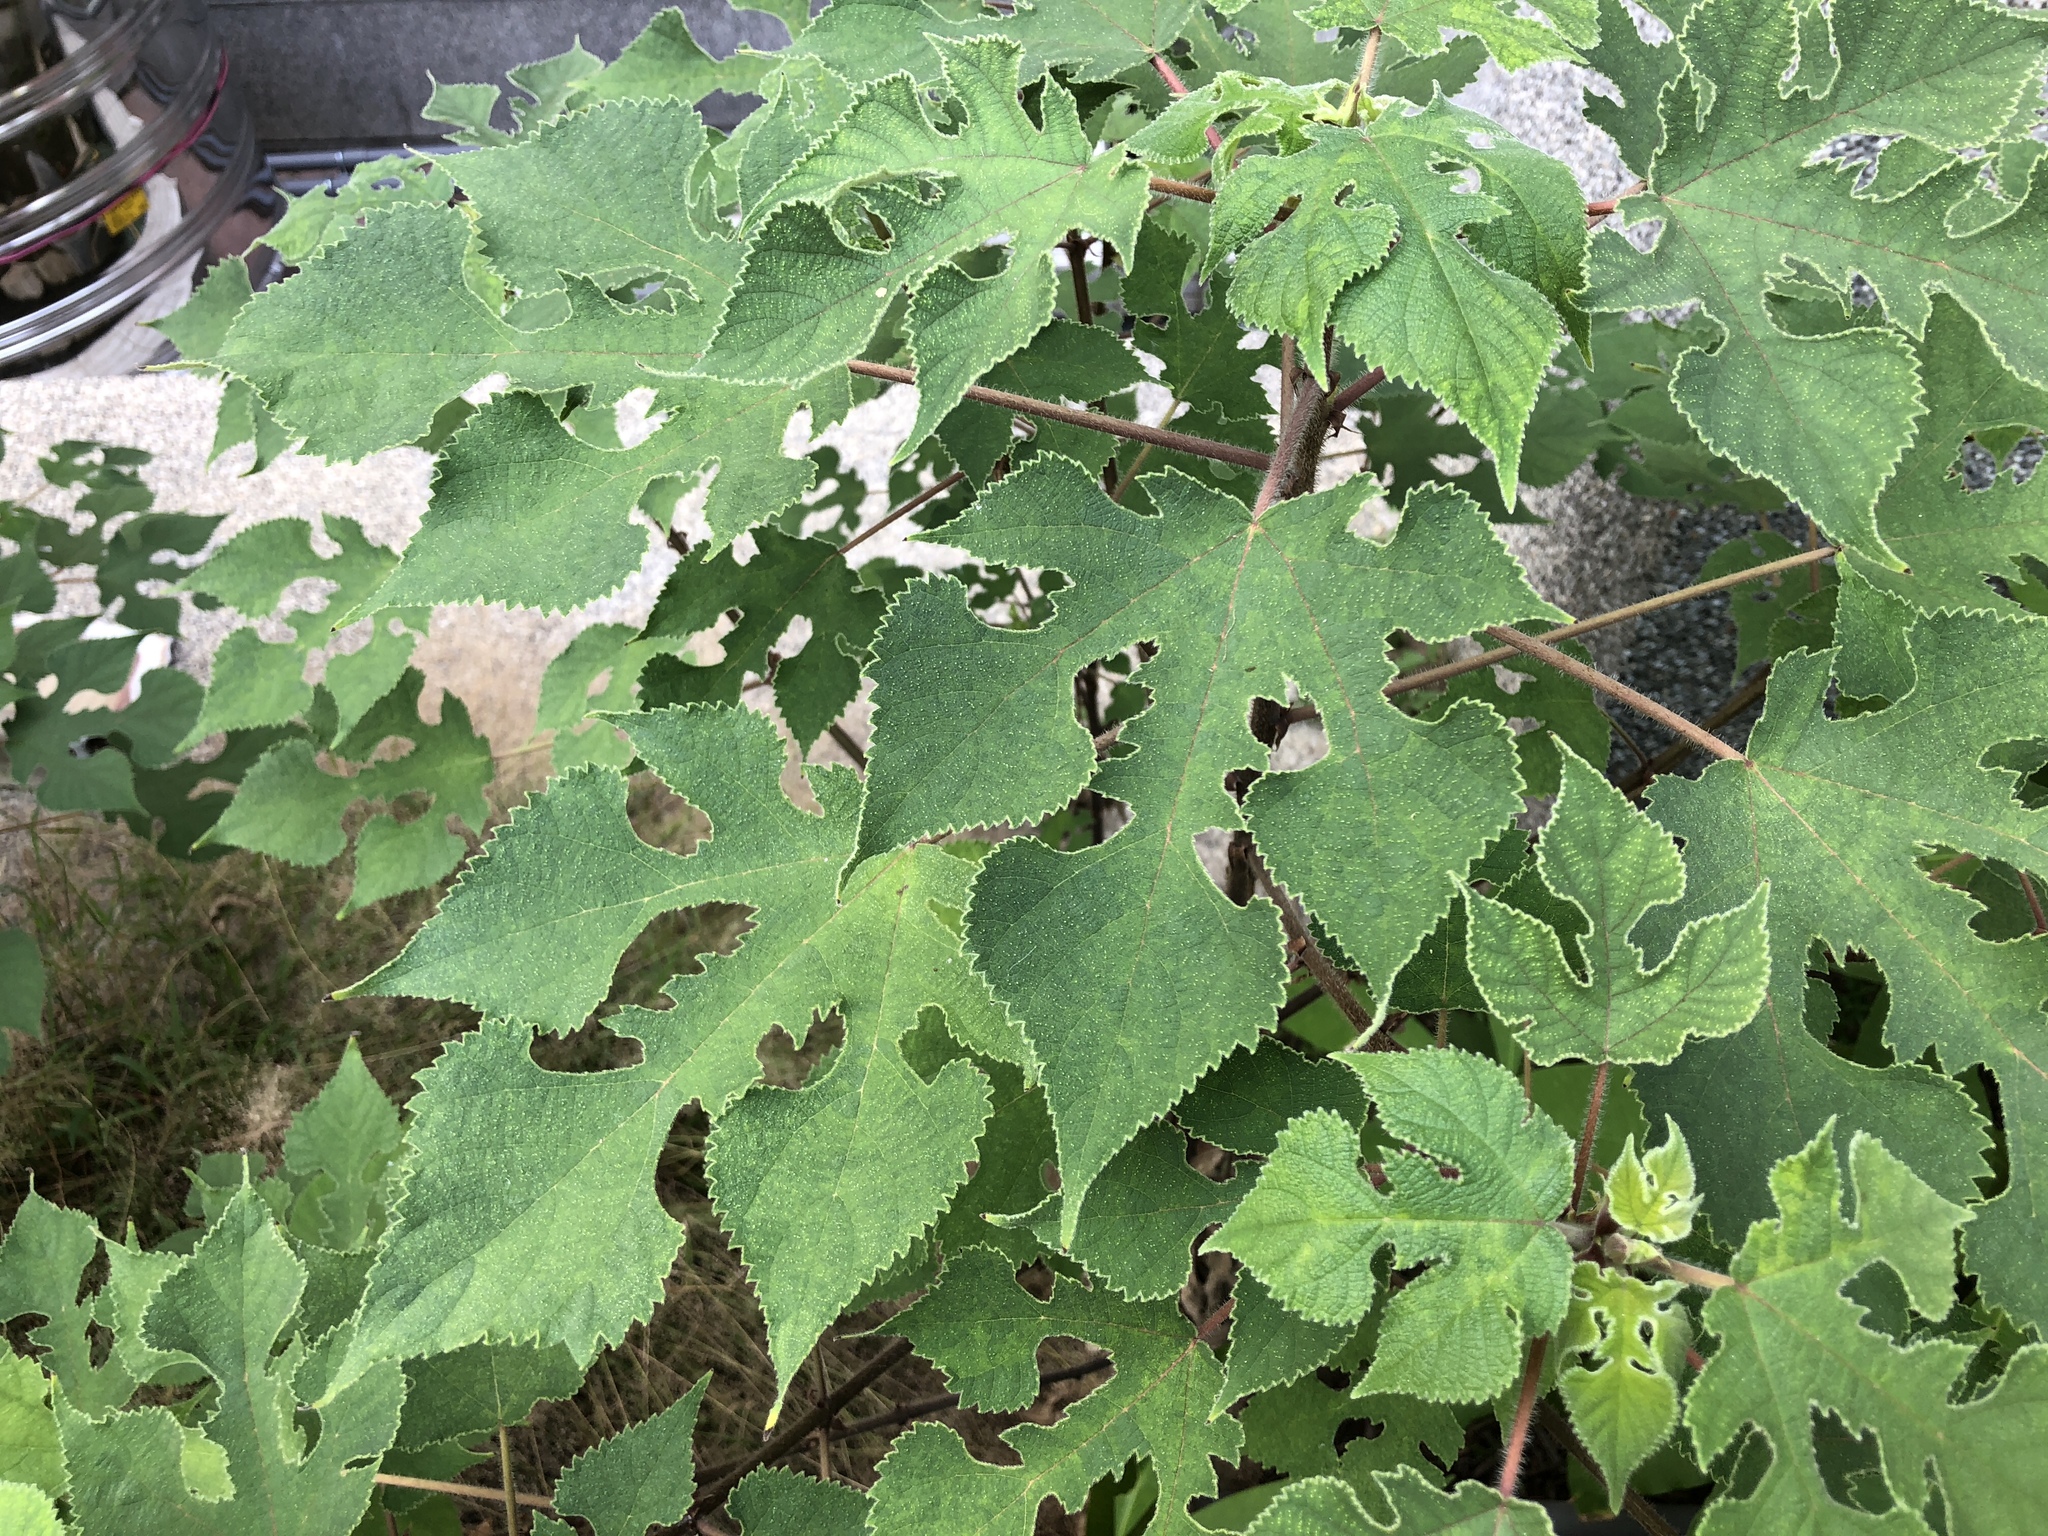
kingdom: Plantae
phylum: Tracheophyta
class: Magnoliopsida
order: Rosales
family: Moraceae
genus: Broussonetia
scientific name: Broussonetia papyrifera
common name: Paper mulberry
